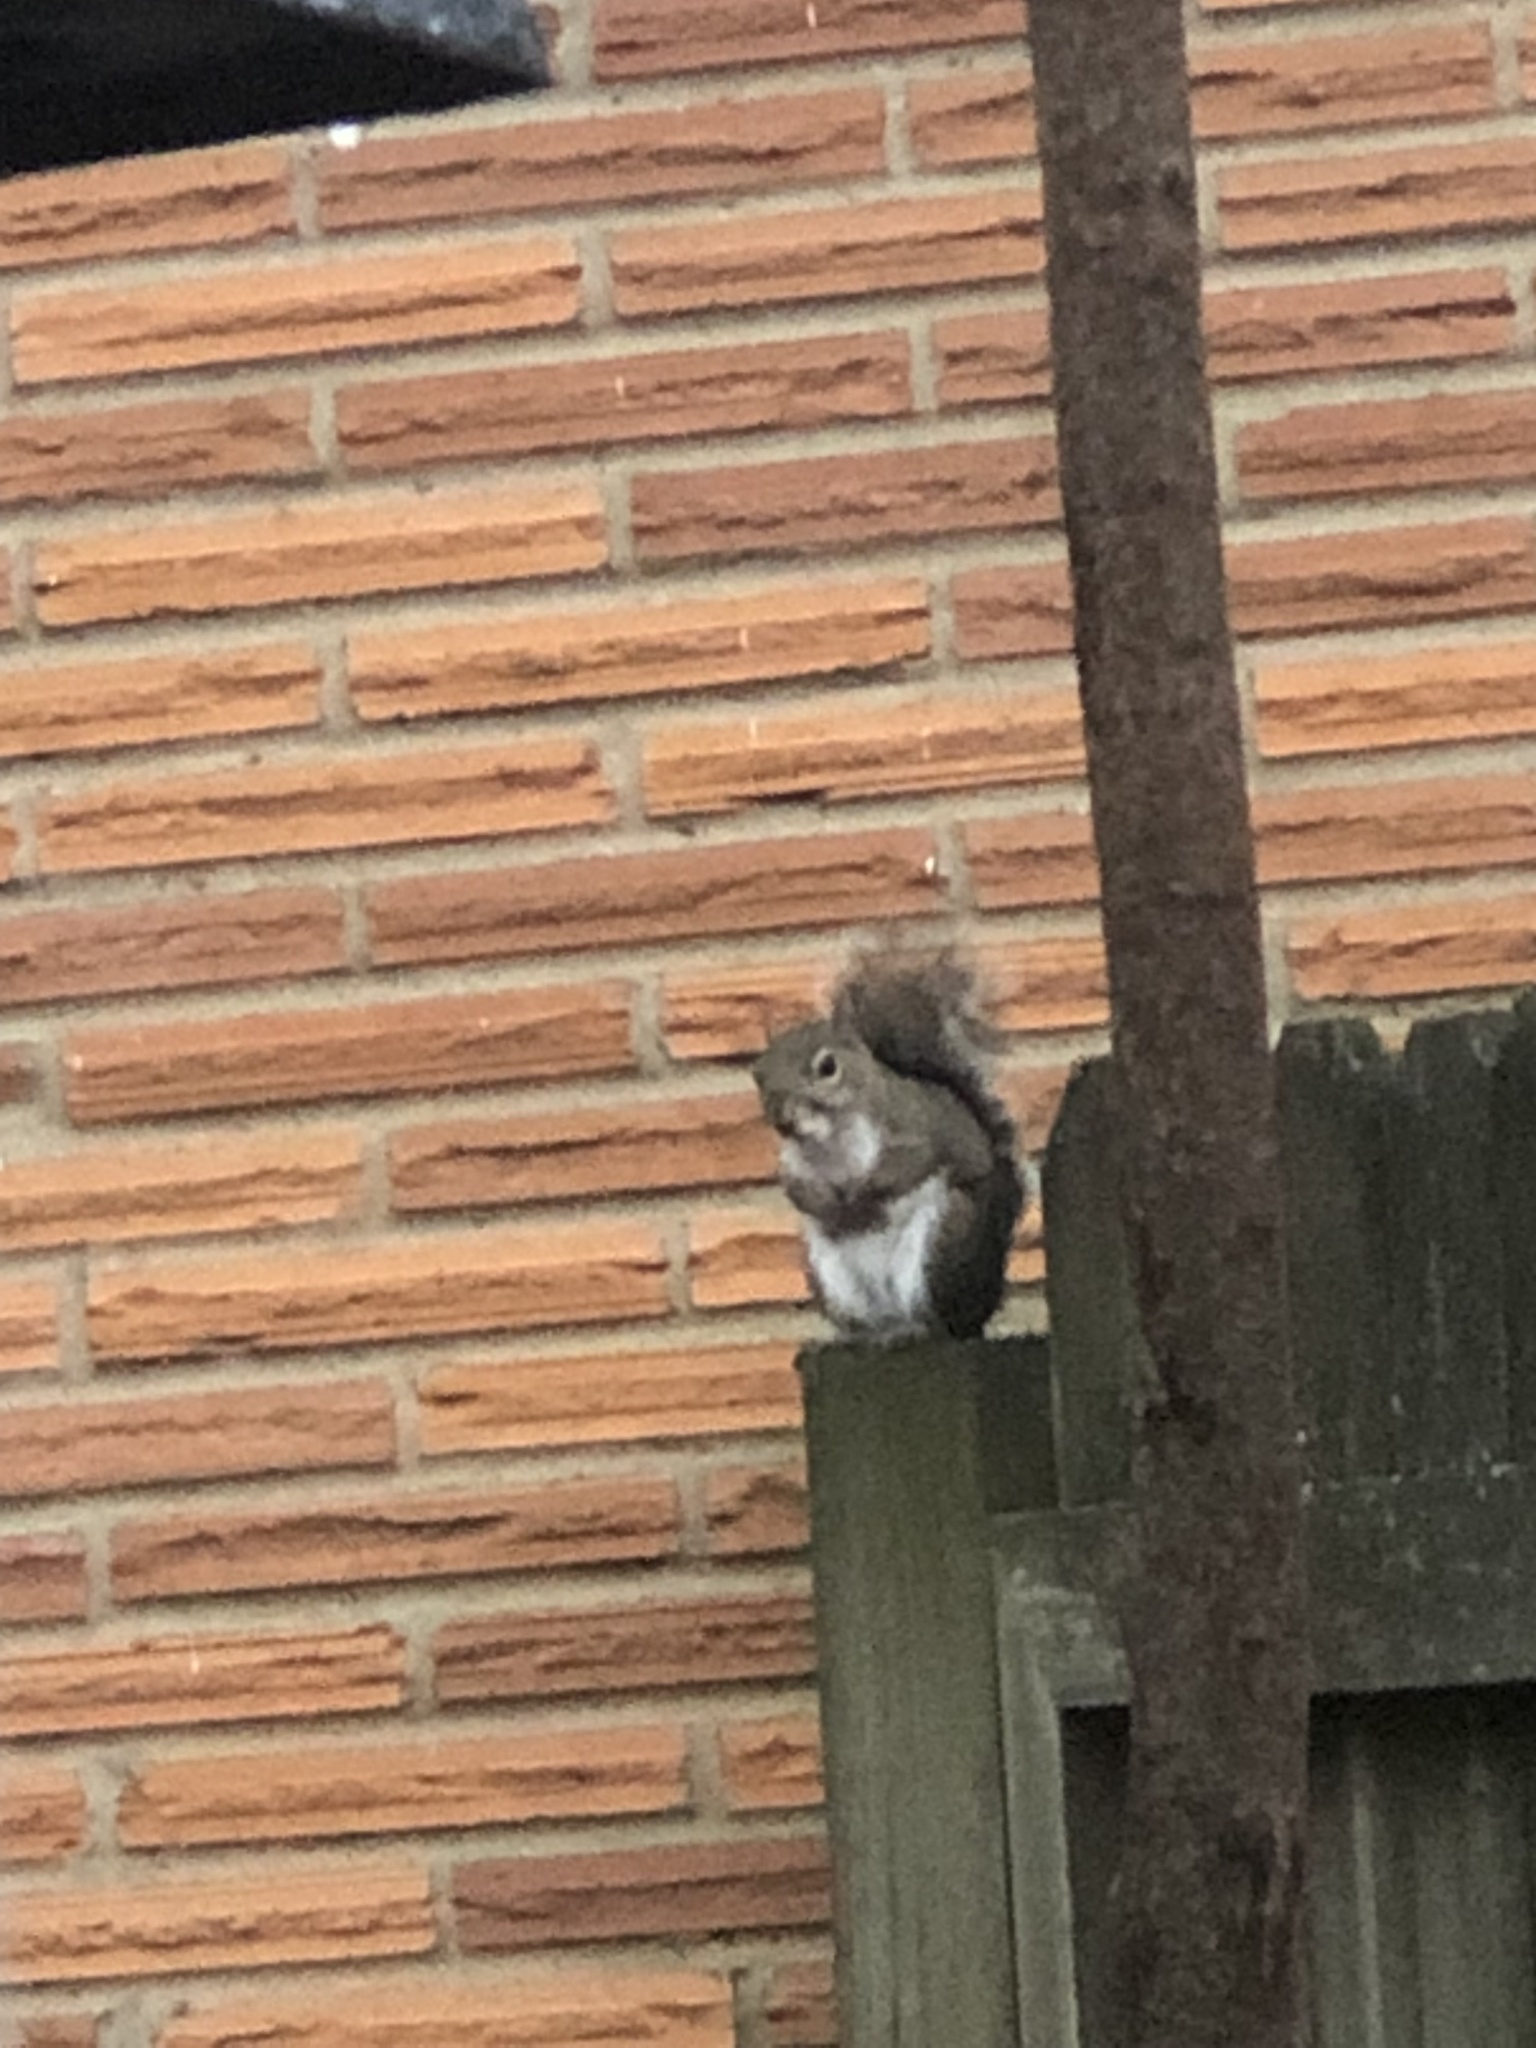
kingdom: Animalia
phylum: Chordata
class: Mammalia
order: Rodentia
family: Sciuridae
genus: Sciurus
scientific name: Sciurus carolinensis
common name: Eastern gray squirrel
